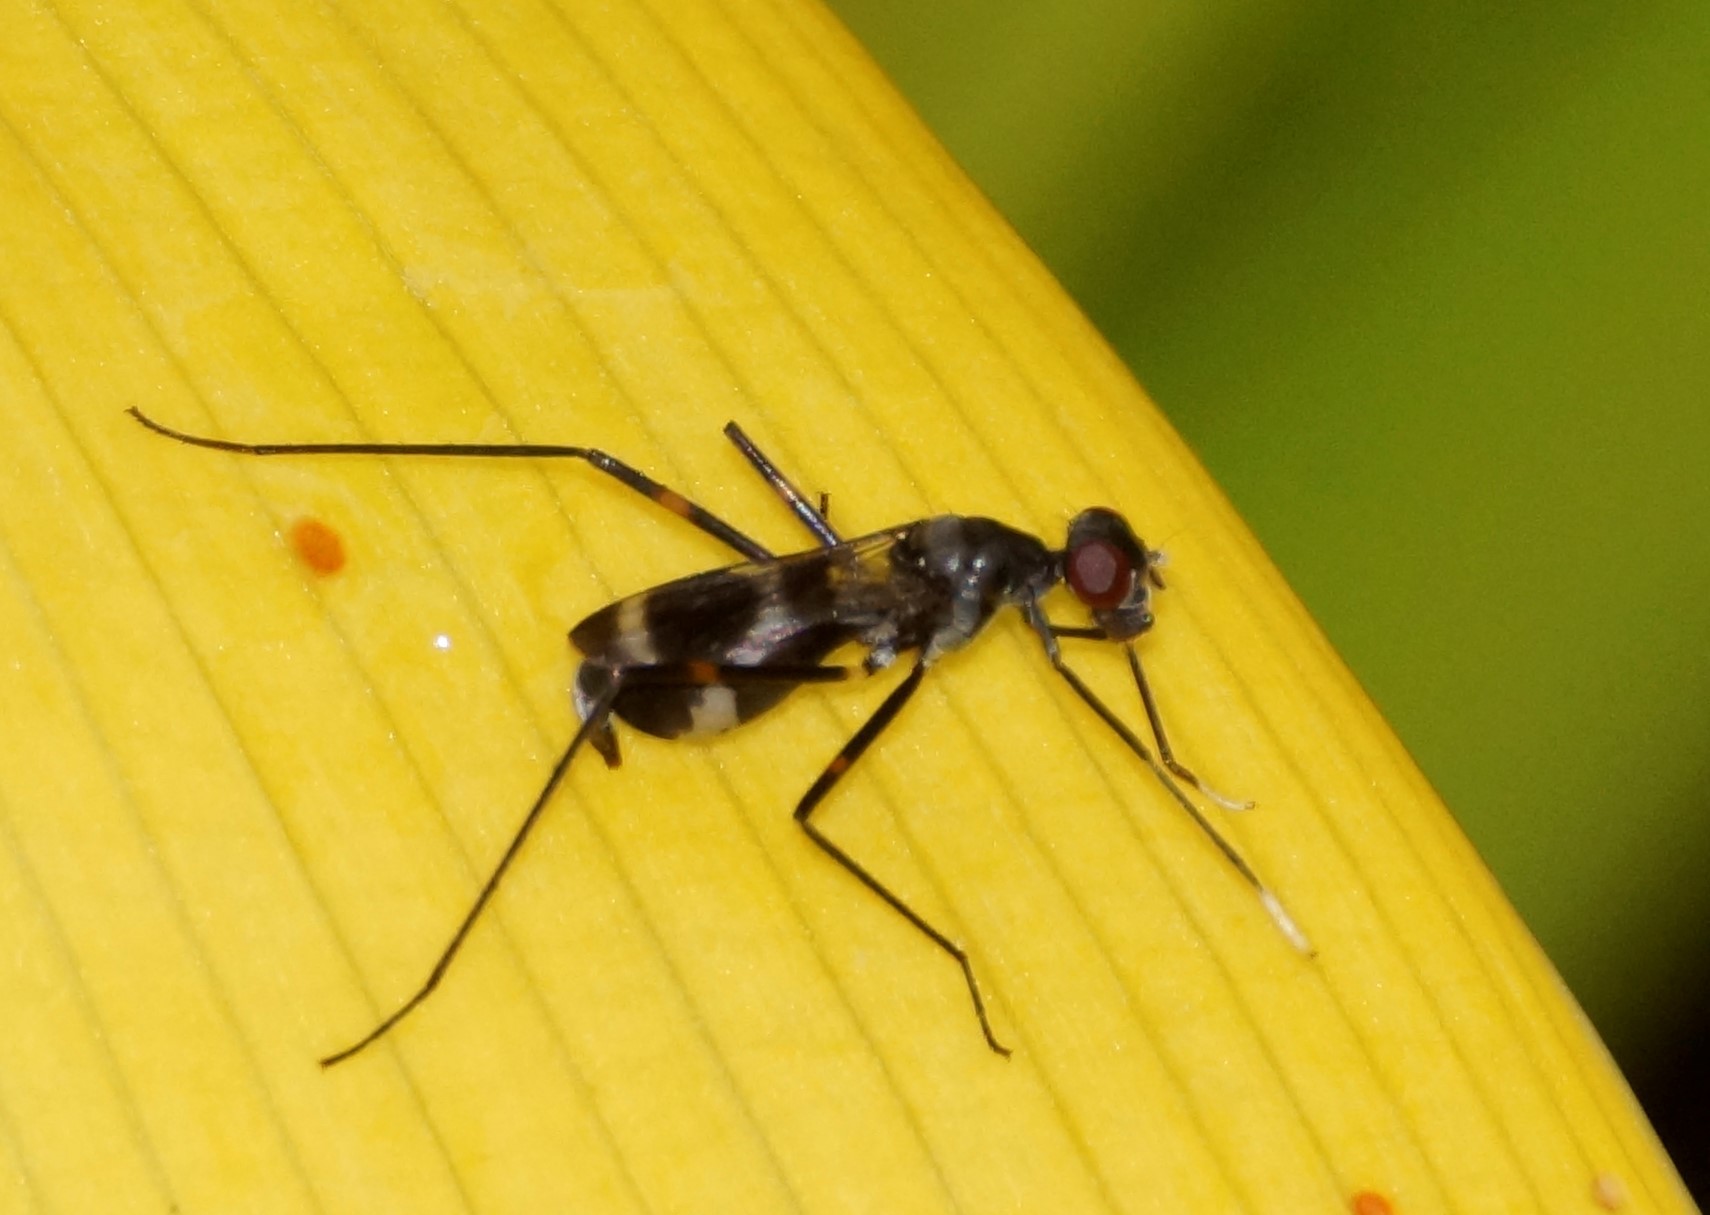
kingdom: Animalia
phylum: Arthropoda
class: Insecta
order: Diptera
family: Micropezidae
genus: Mimegralla
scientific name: Mimegralla australica
